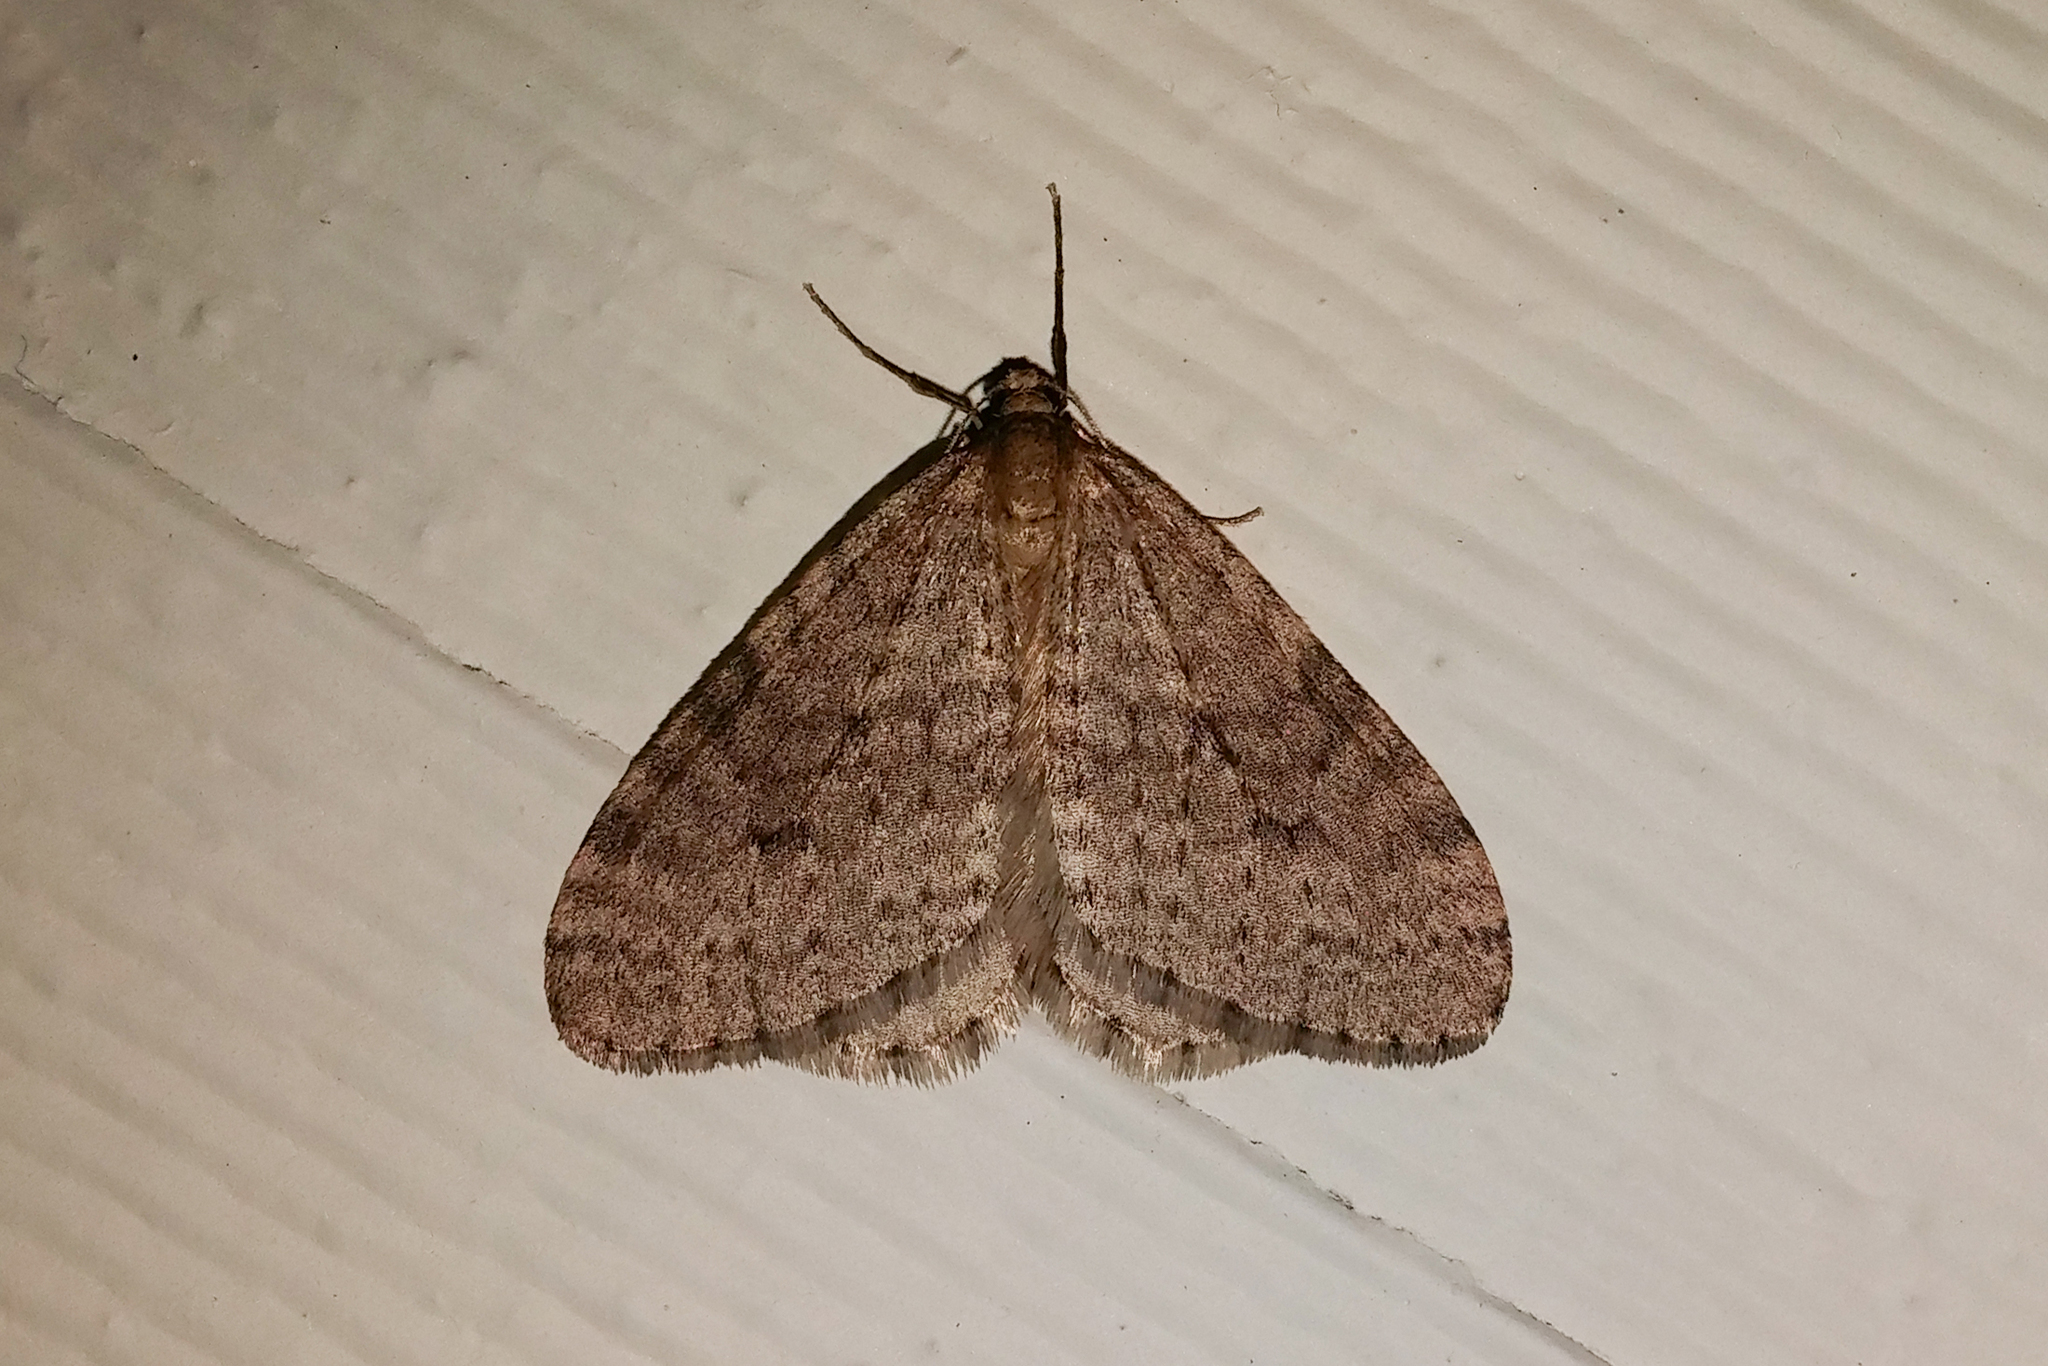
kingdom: Animalia
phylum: Arthropoda
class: Insecta
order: Lepidoptera
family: Geometridae
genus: Operophtera
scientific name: Operophtera bruceata
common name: Bruce spanworm
